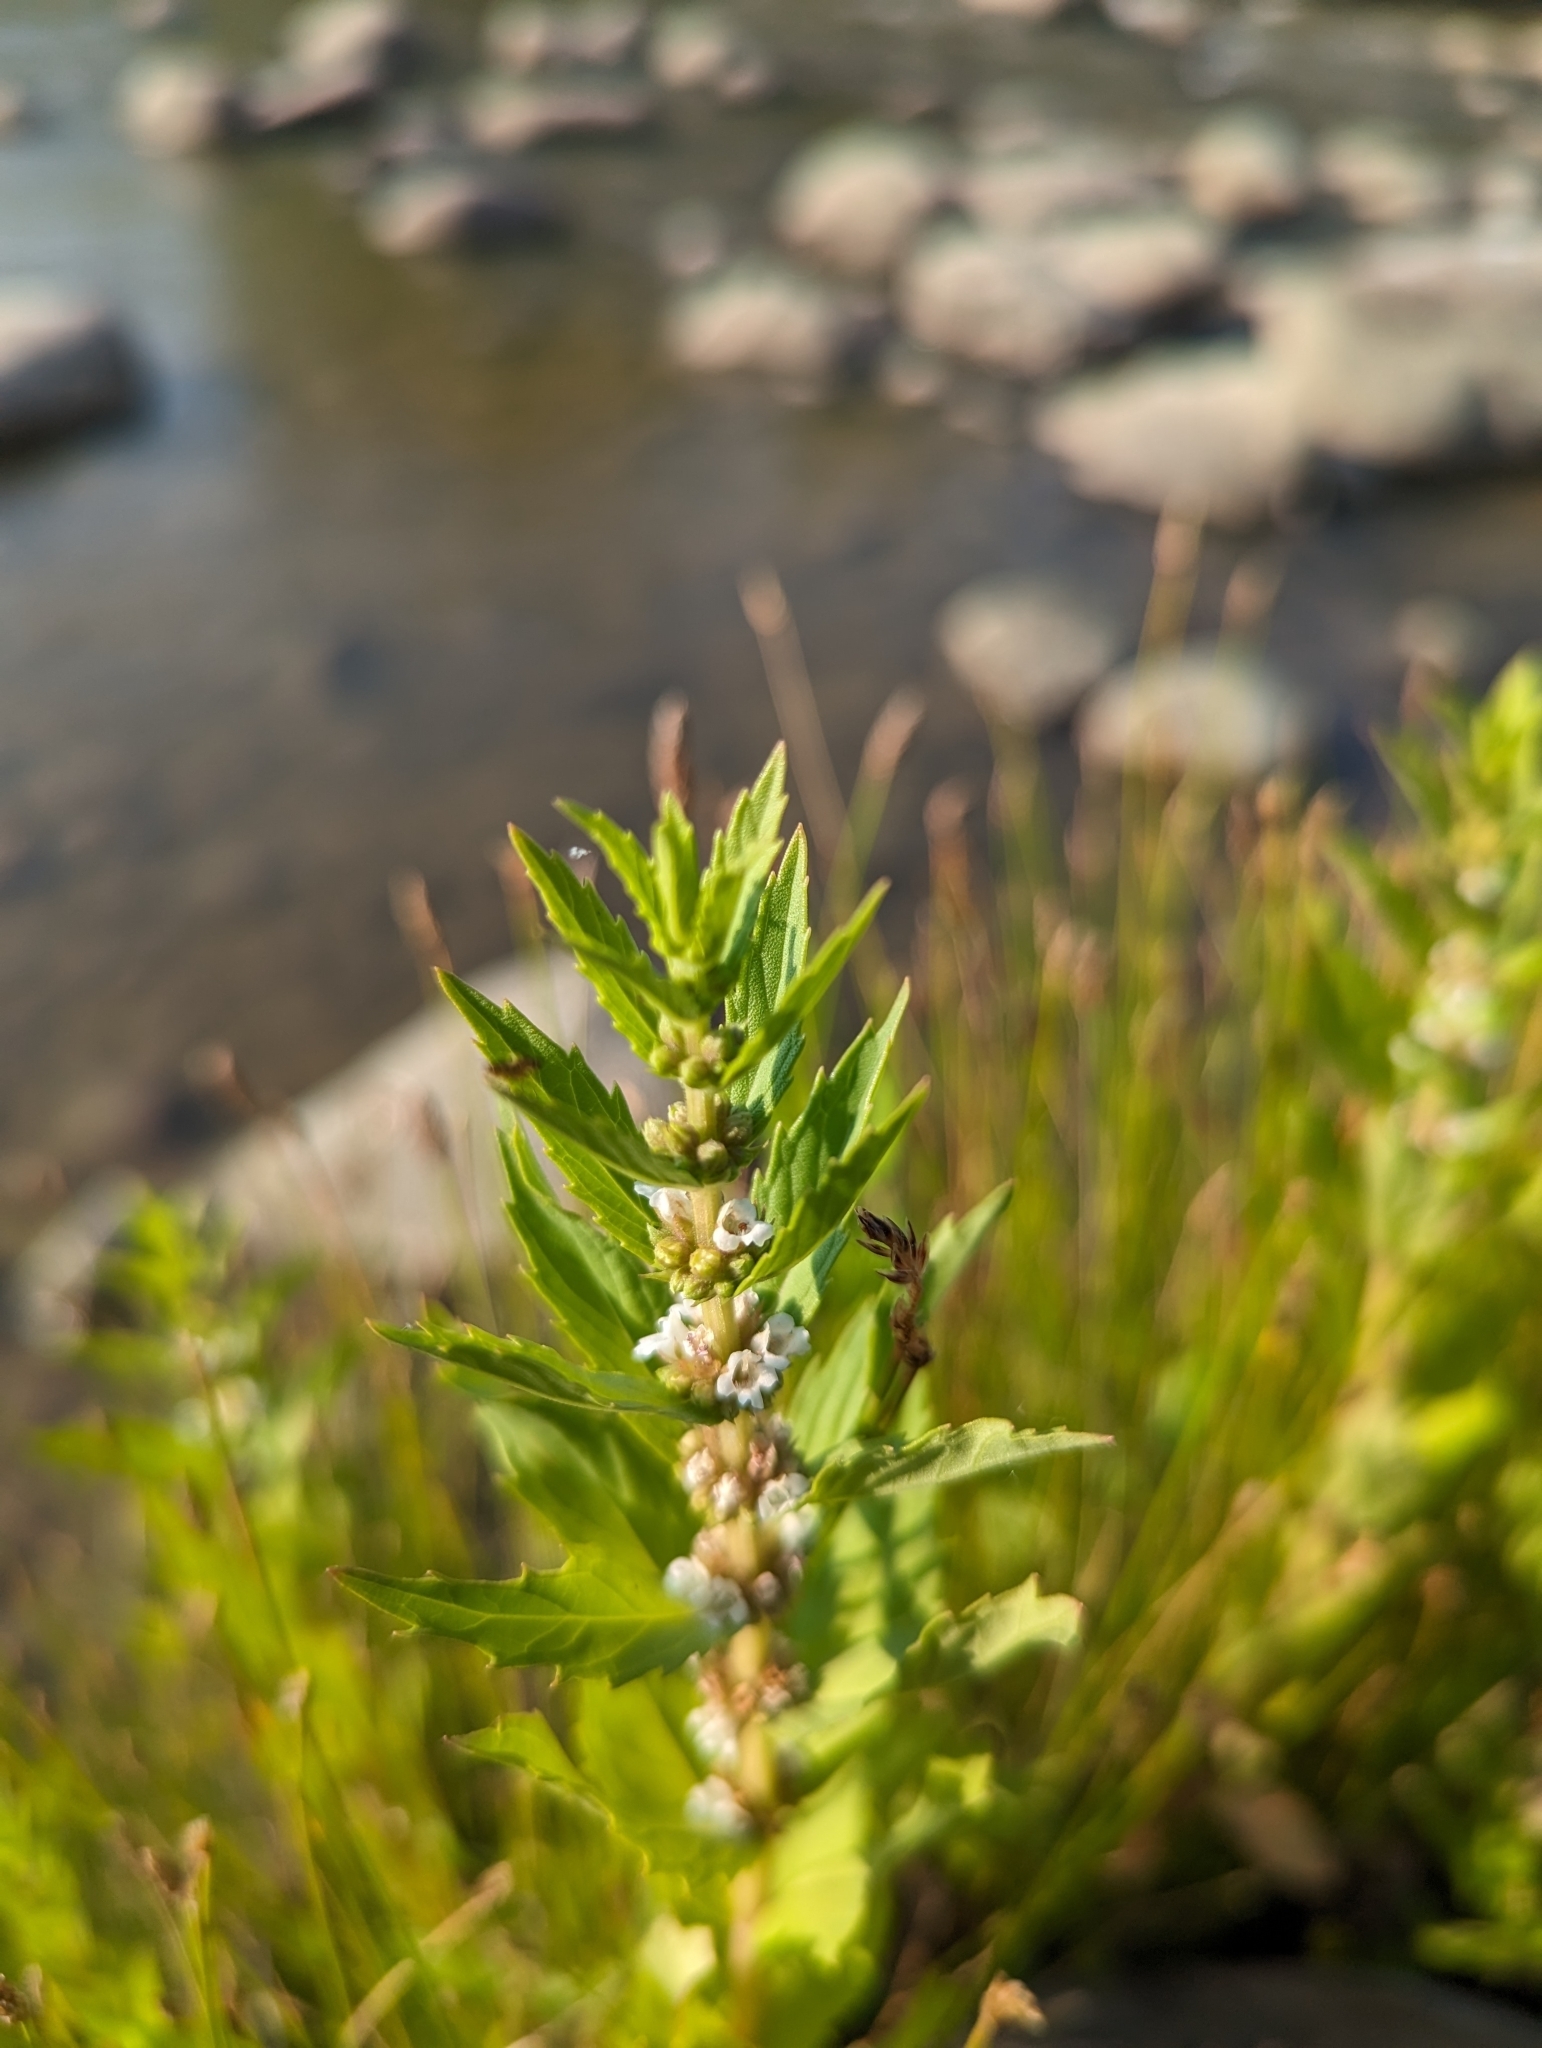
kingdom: Plantae
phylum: Tracheophyta
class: Magnoliopsida
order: Lamiales
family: Lamiaceae
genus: Lycopus
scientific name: Lycopus asper
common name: Rough water-horehound
